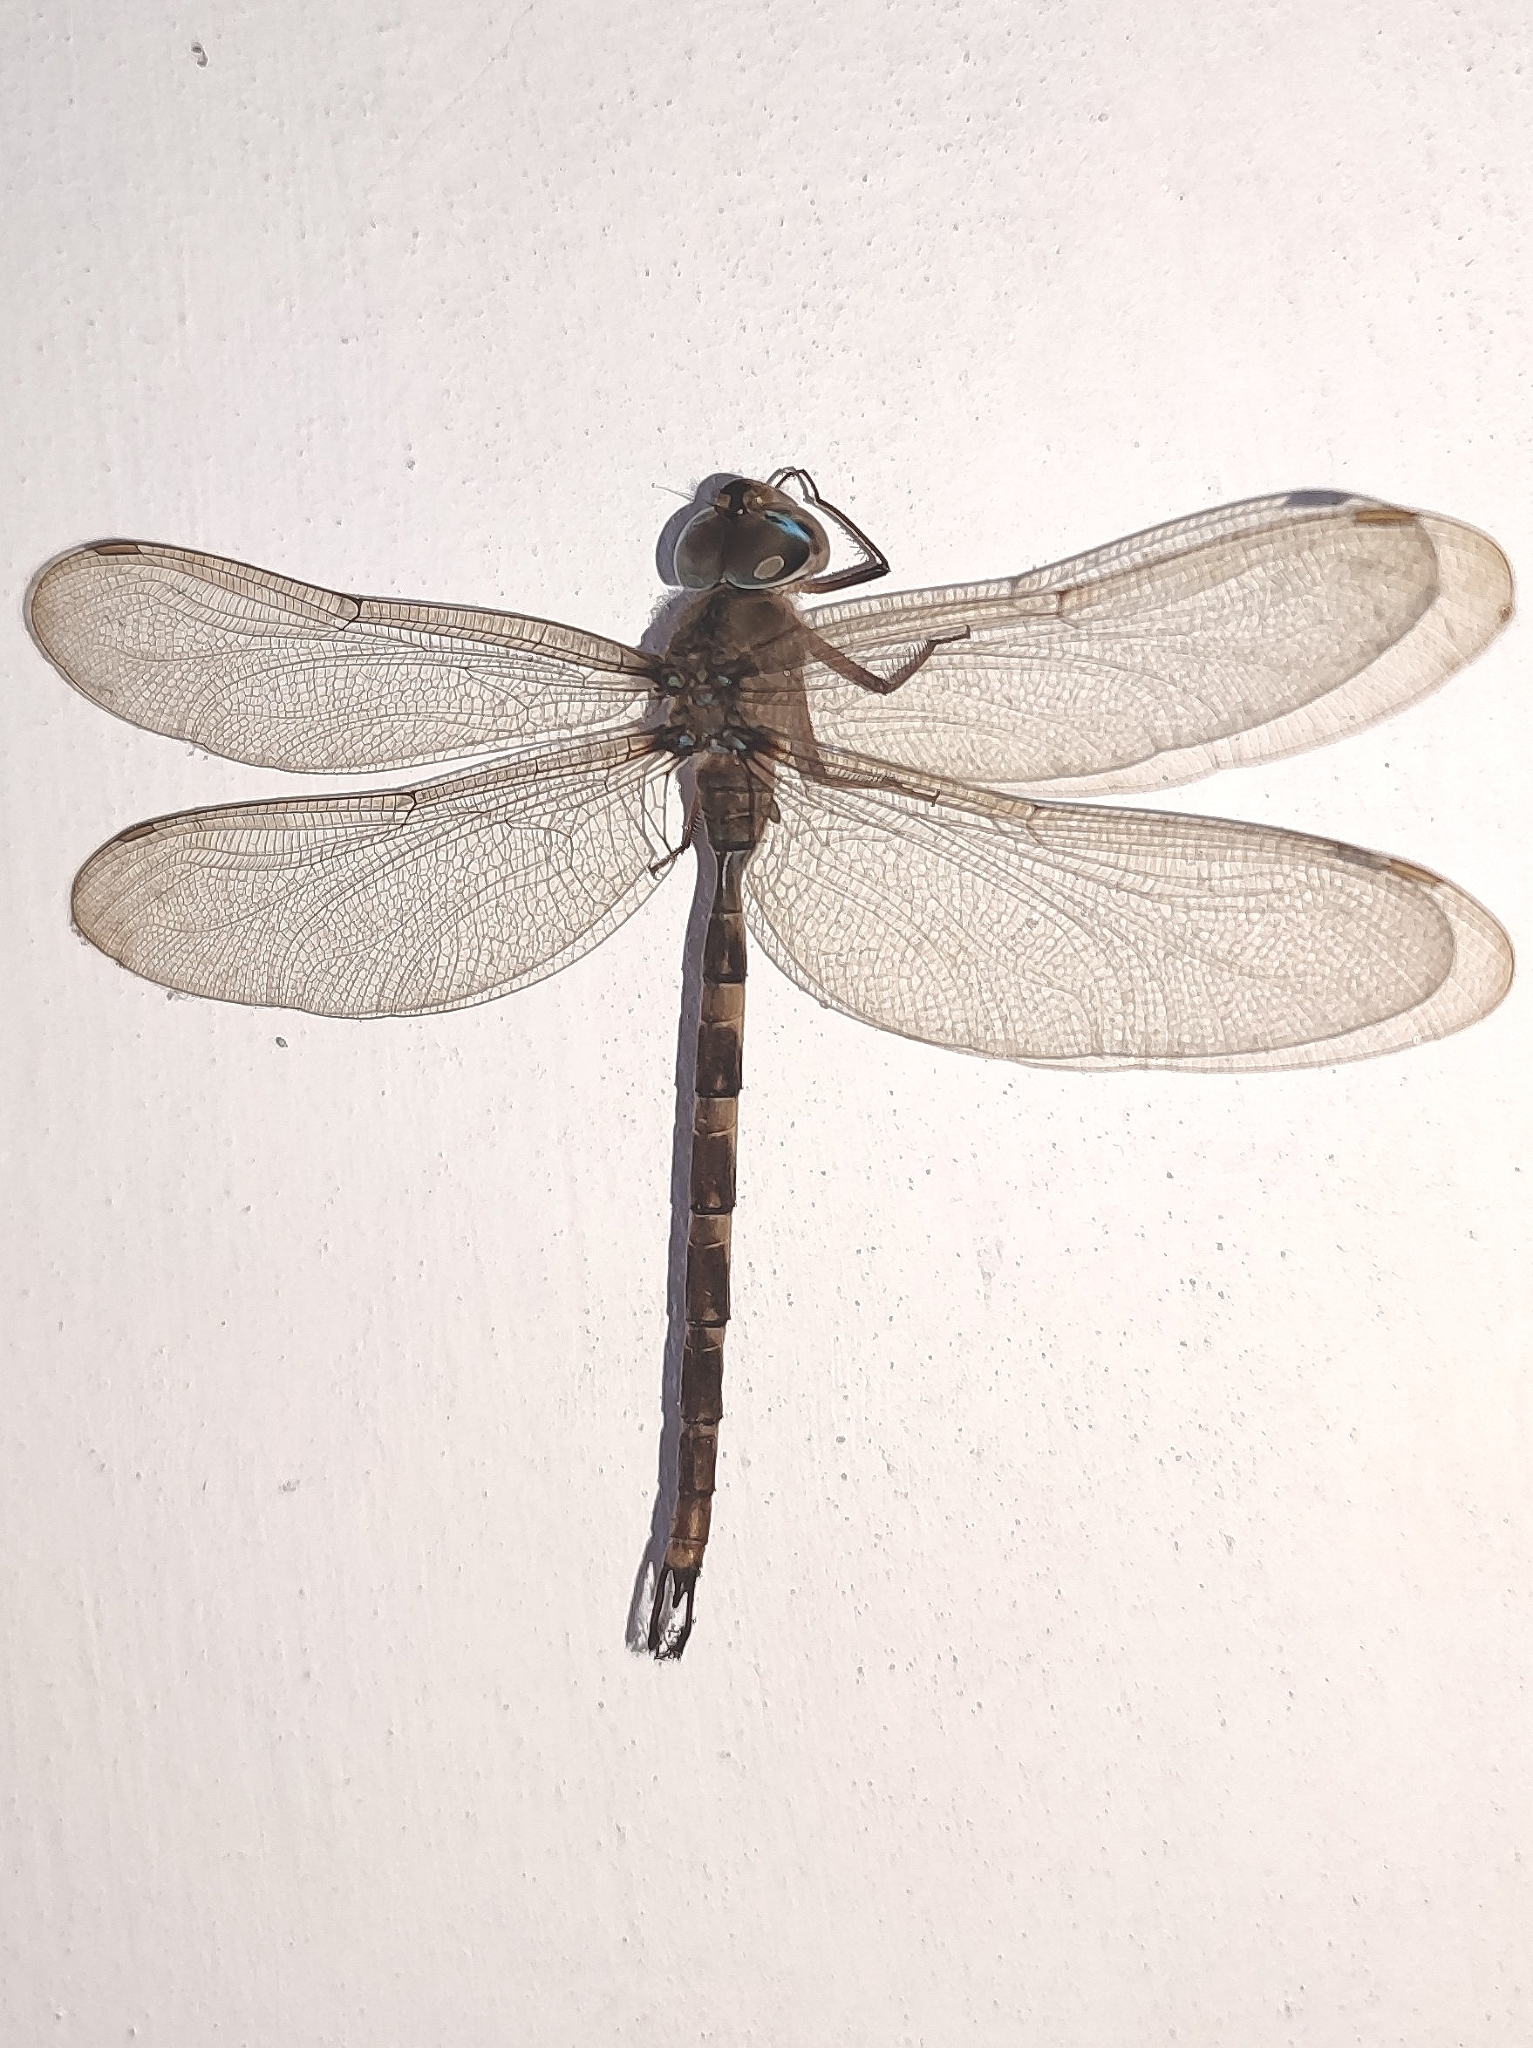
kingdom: Animalia
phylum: Arthropoda
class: Insecta
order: Odonata
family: Aeshnidae
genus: Gynacantha
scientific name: Gynacantha dravida
